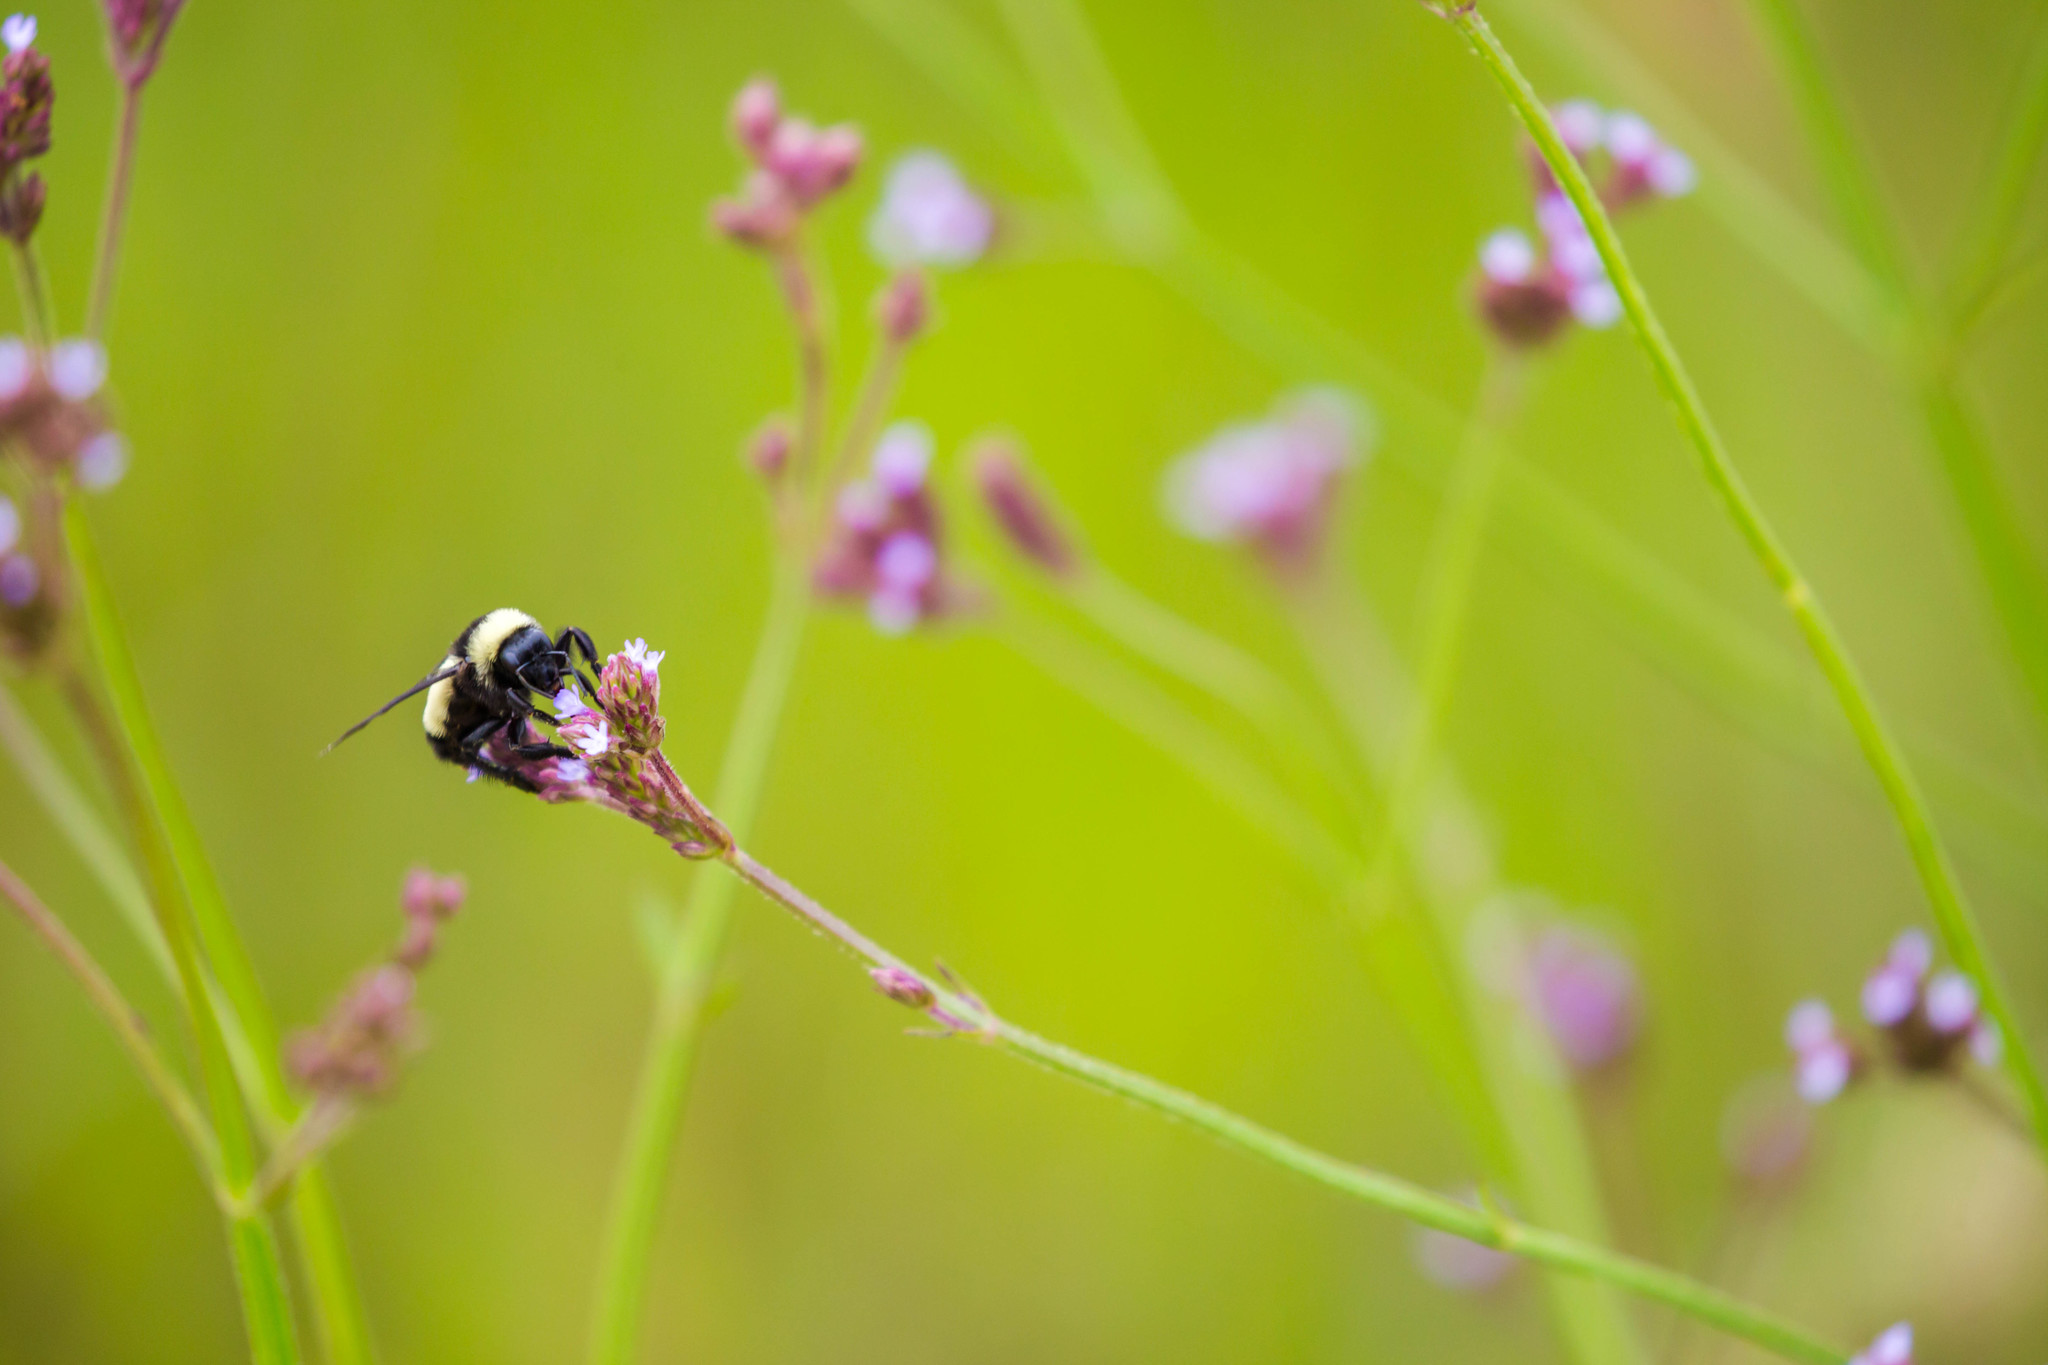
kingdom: Animalia
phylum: Arthropoda
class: Insecta
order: Hymenoptera
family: Apidae
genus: Bombus
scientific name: Bombus pensylvanicus
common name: Bumble bee
